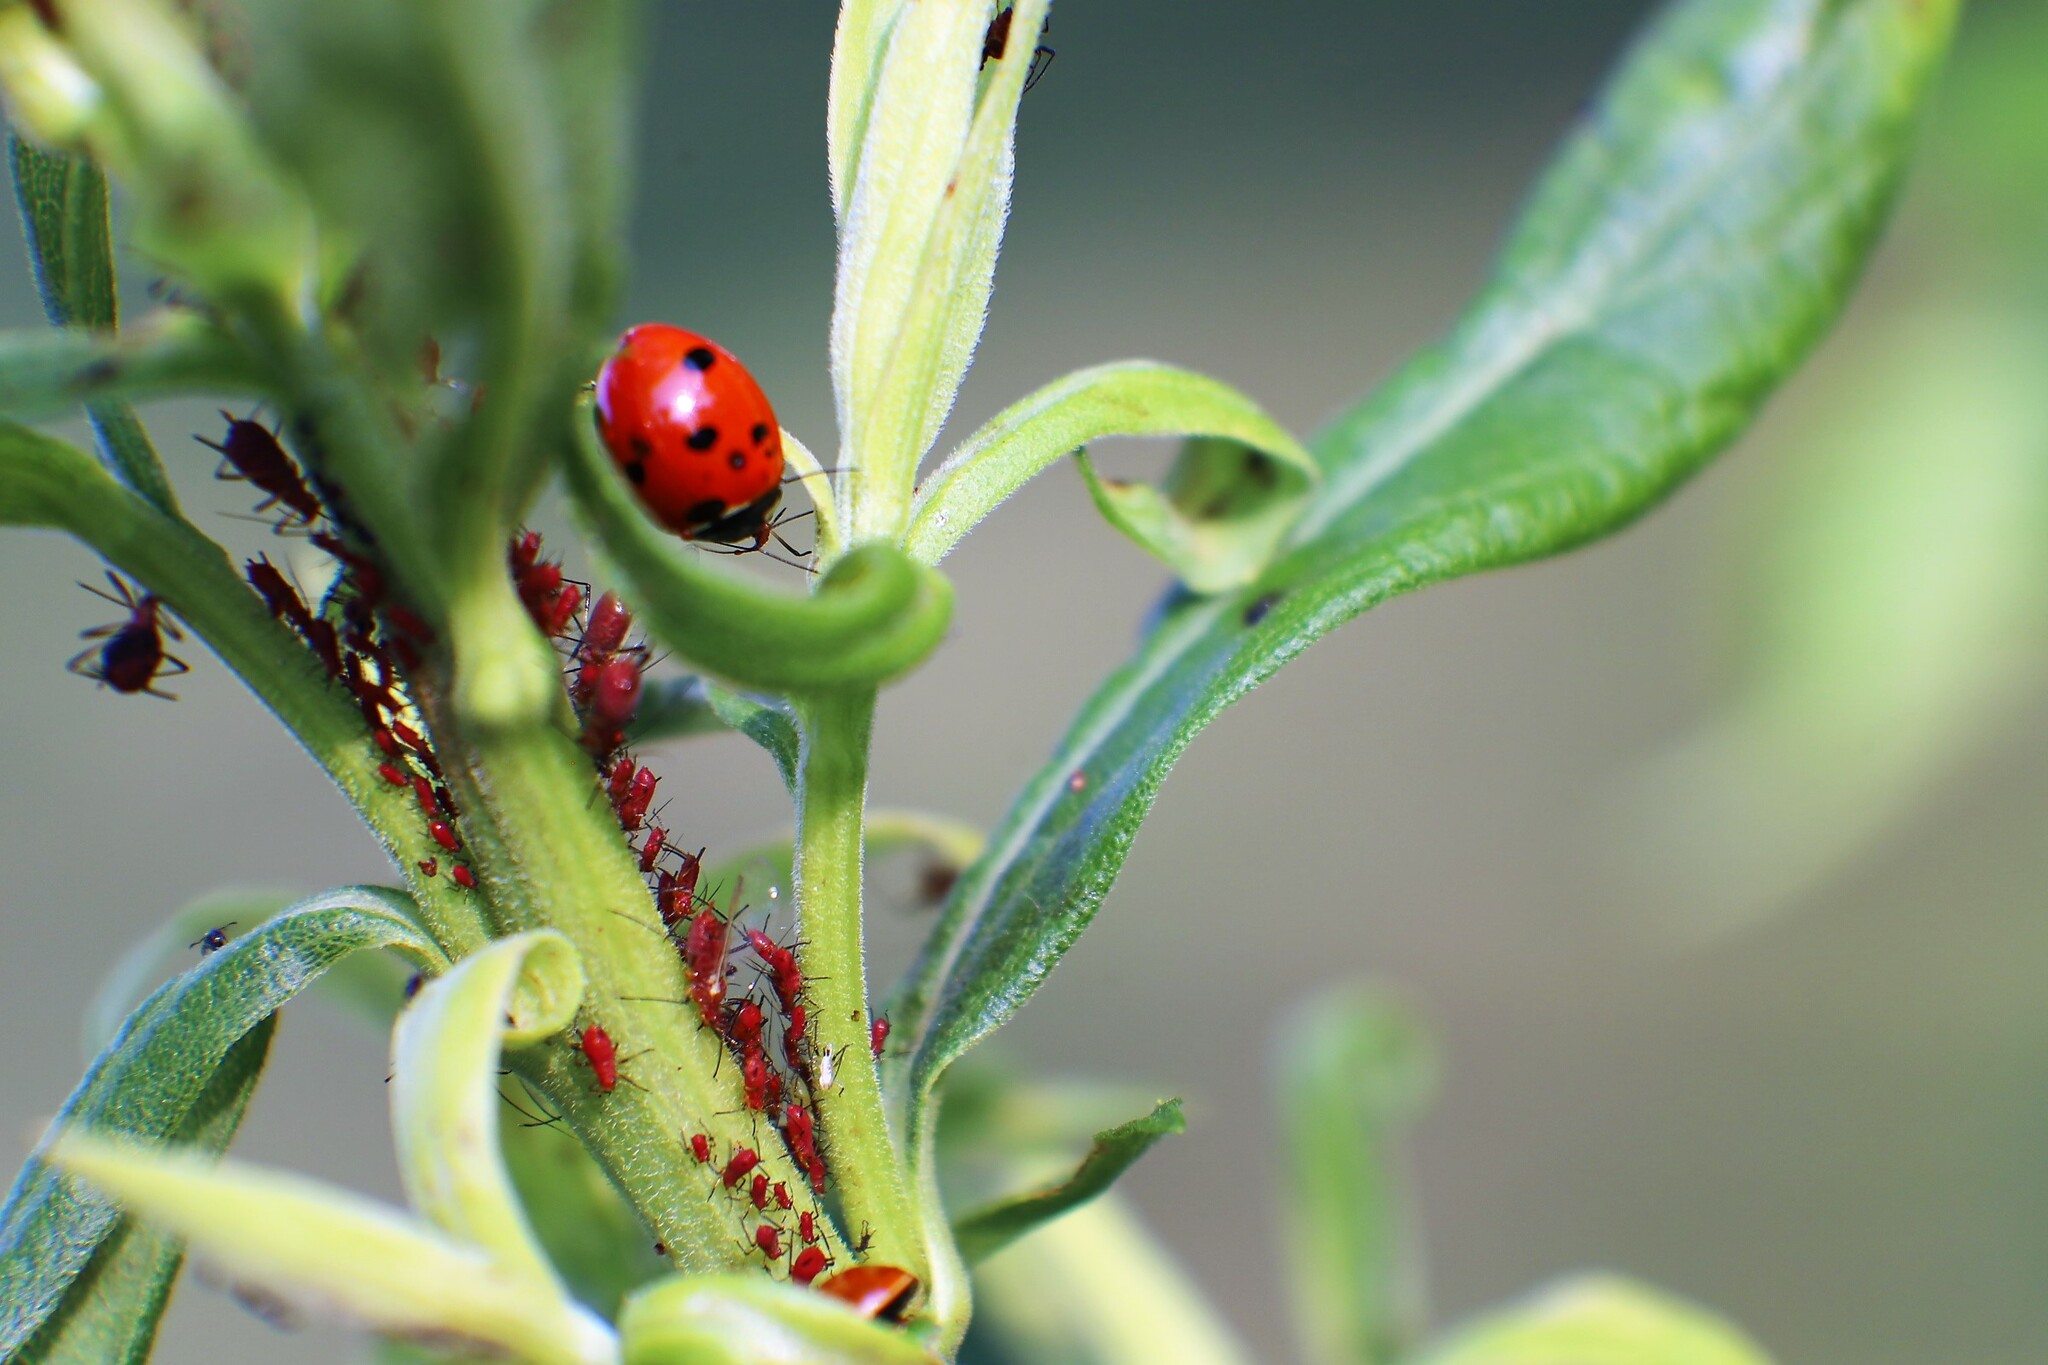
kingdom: Animalia
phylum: Arthropoda
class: Insecta
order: Coleoptera
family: Coccinellidae
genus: Coccinella
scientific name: Coccinella septempunctata
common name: Sevenspotted lady beetle
